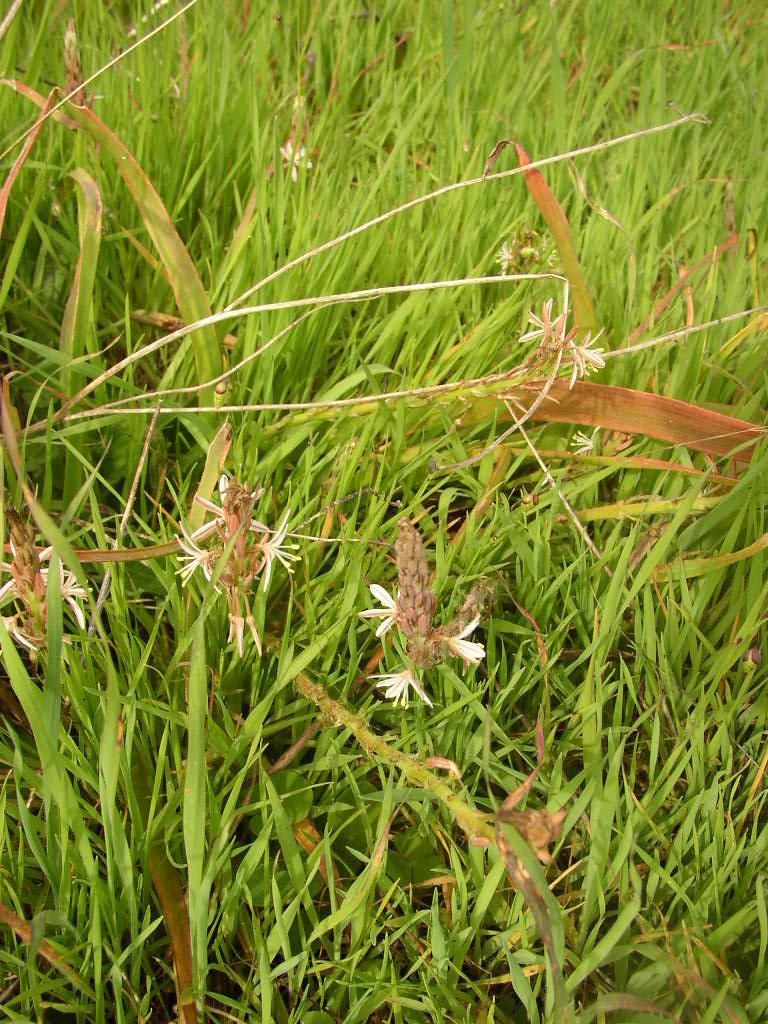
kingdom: Plantae
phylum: Tracheophyta
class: Liliopsida
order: Asparagales
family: Asphodelaceae
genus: Trachyandra
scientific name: Trachyandra ciliata
